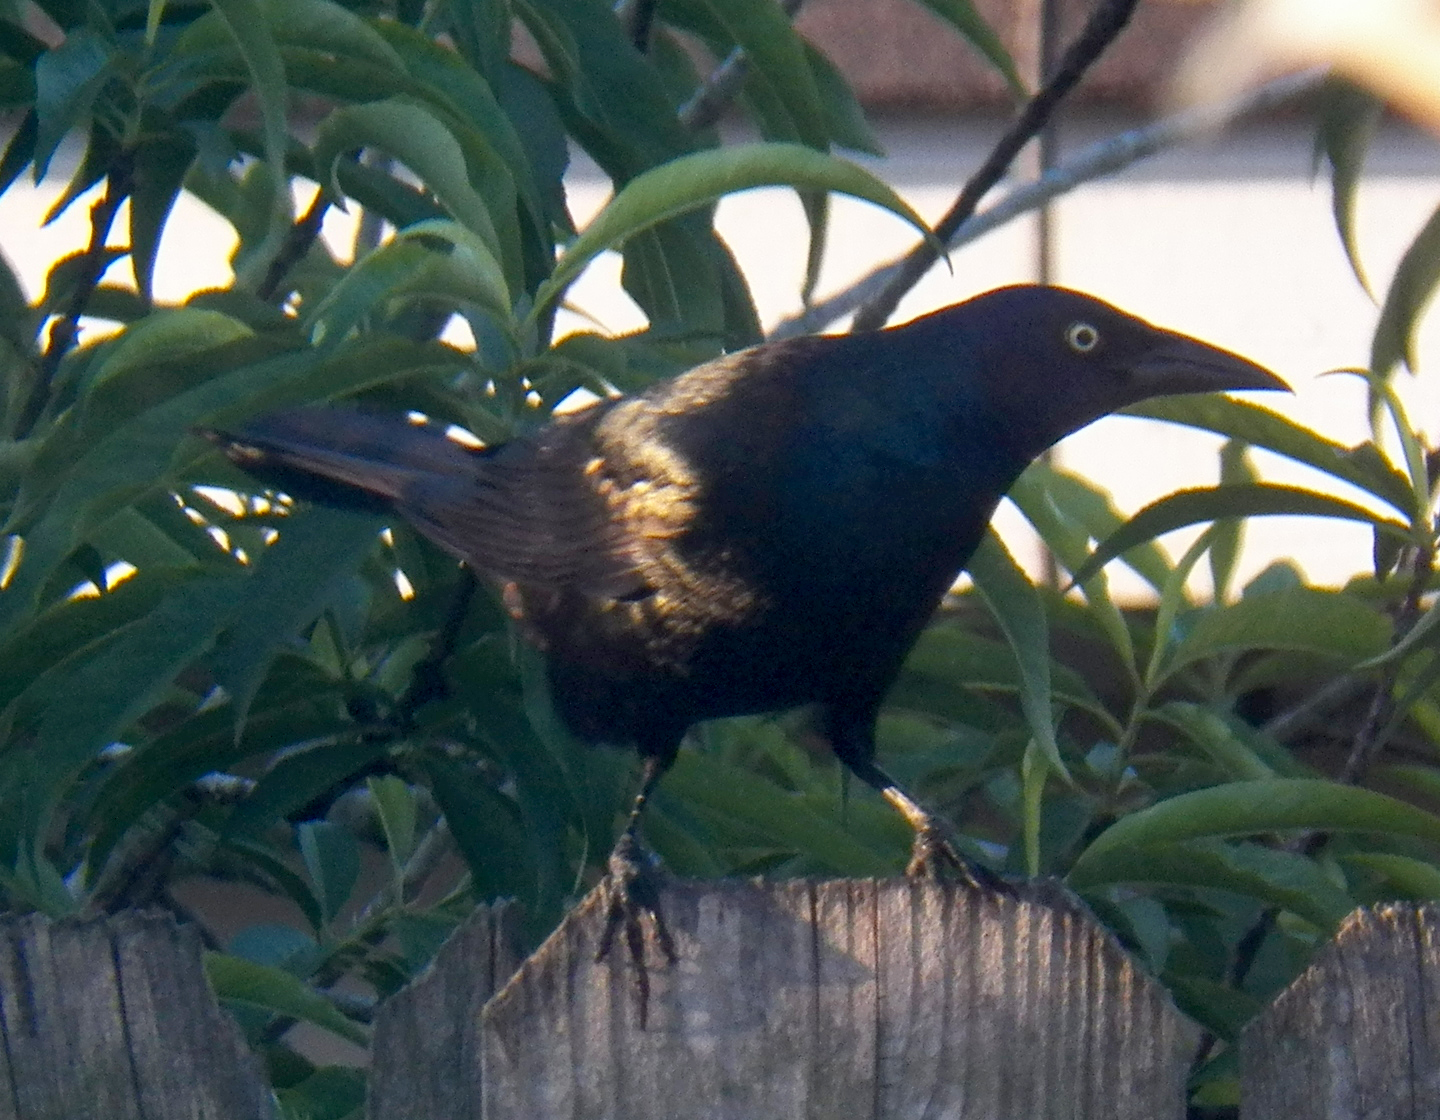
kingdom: Animalia
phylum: Chordata
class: Aves
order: Passeriformes
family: Icteridae
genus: Quiscalus
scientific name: Quiscalus quiscula
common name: Common grackle
